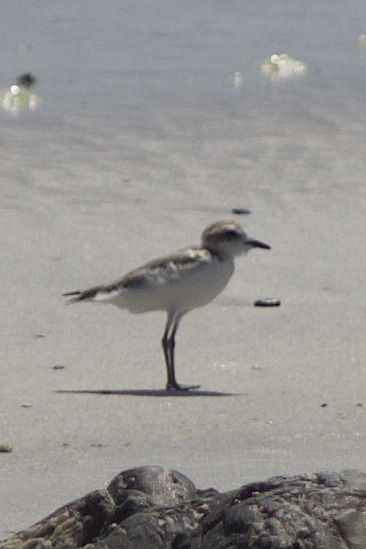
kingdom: Animalia
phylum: Chordata
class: Aves
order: Charadriiformes
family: Charadriidae
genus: Anarhynchus
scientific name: Anarhynchus
